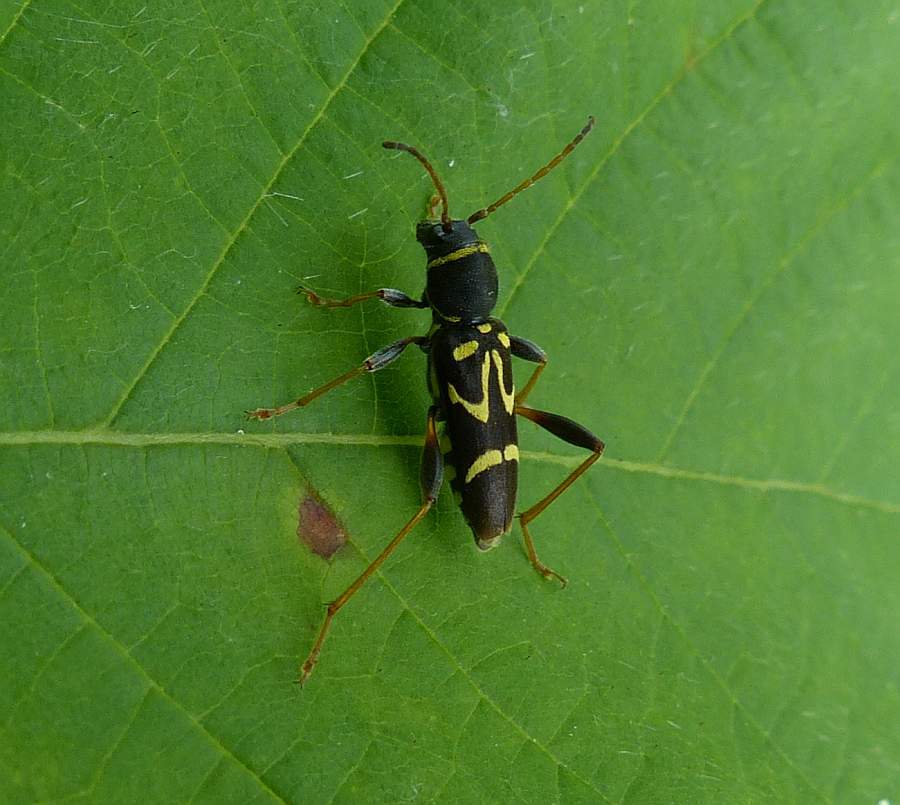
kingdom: Animalia
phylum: Arthropoda
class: Insecta
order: Coleoptera
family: Cerambycidae
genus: Clytus
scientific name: Clytus ruricola
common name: Round-necked longhorn beetle
